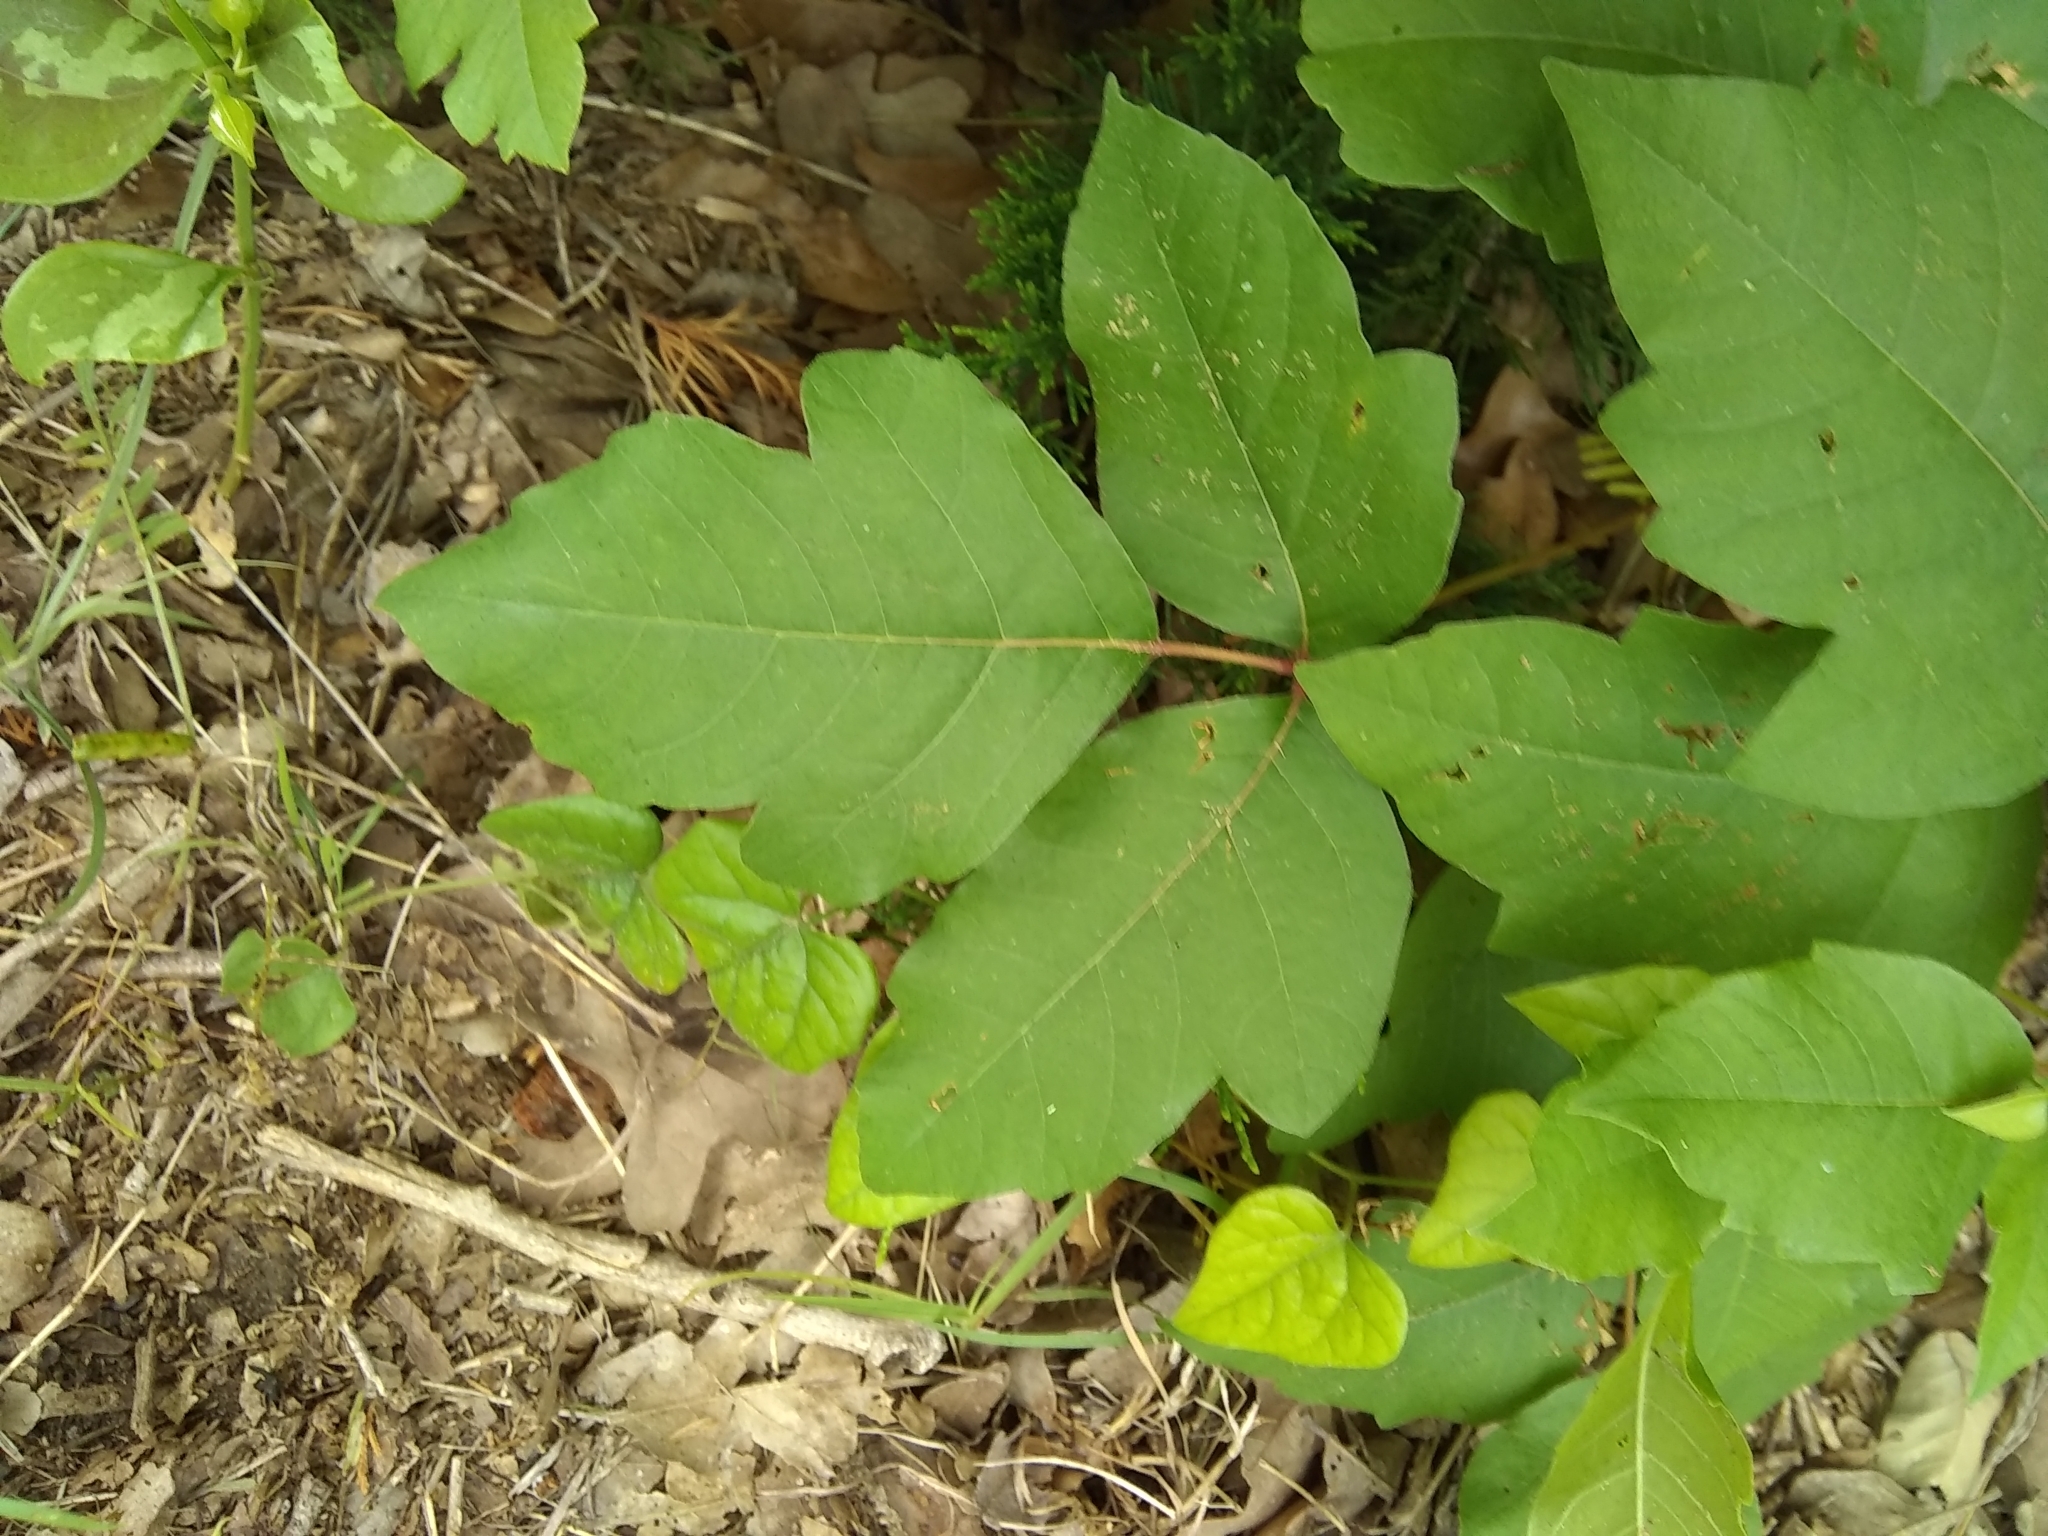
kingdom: Plantae
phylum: Tracheophyta
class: Magnoliopsida
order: Sapindales
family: Anacardiaceae
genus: Toxicodendron
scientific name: Toxicodendron radicans
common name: Poison ivy
